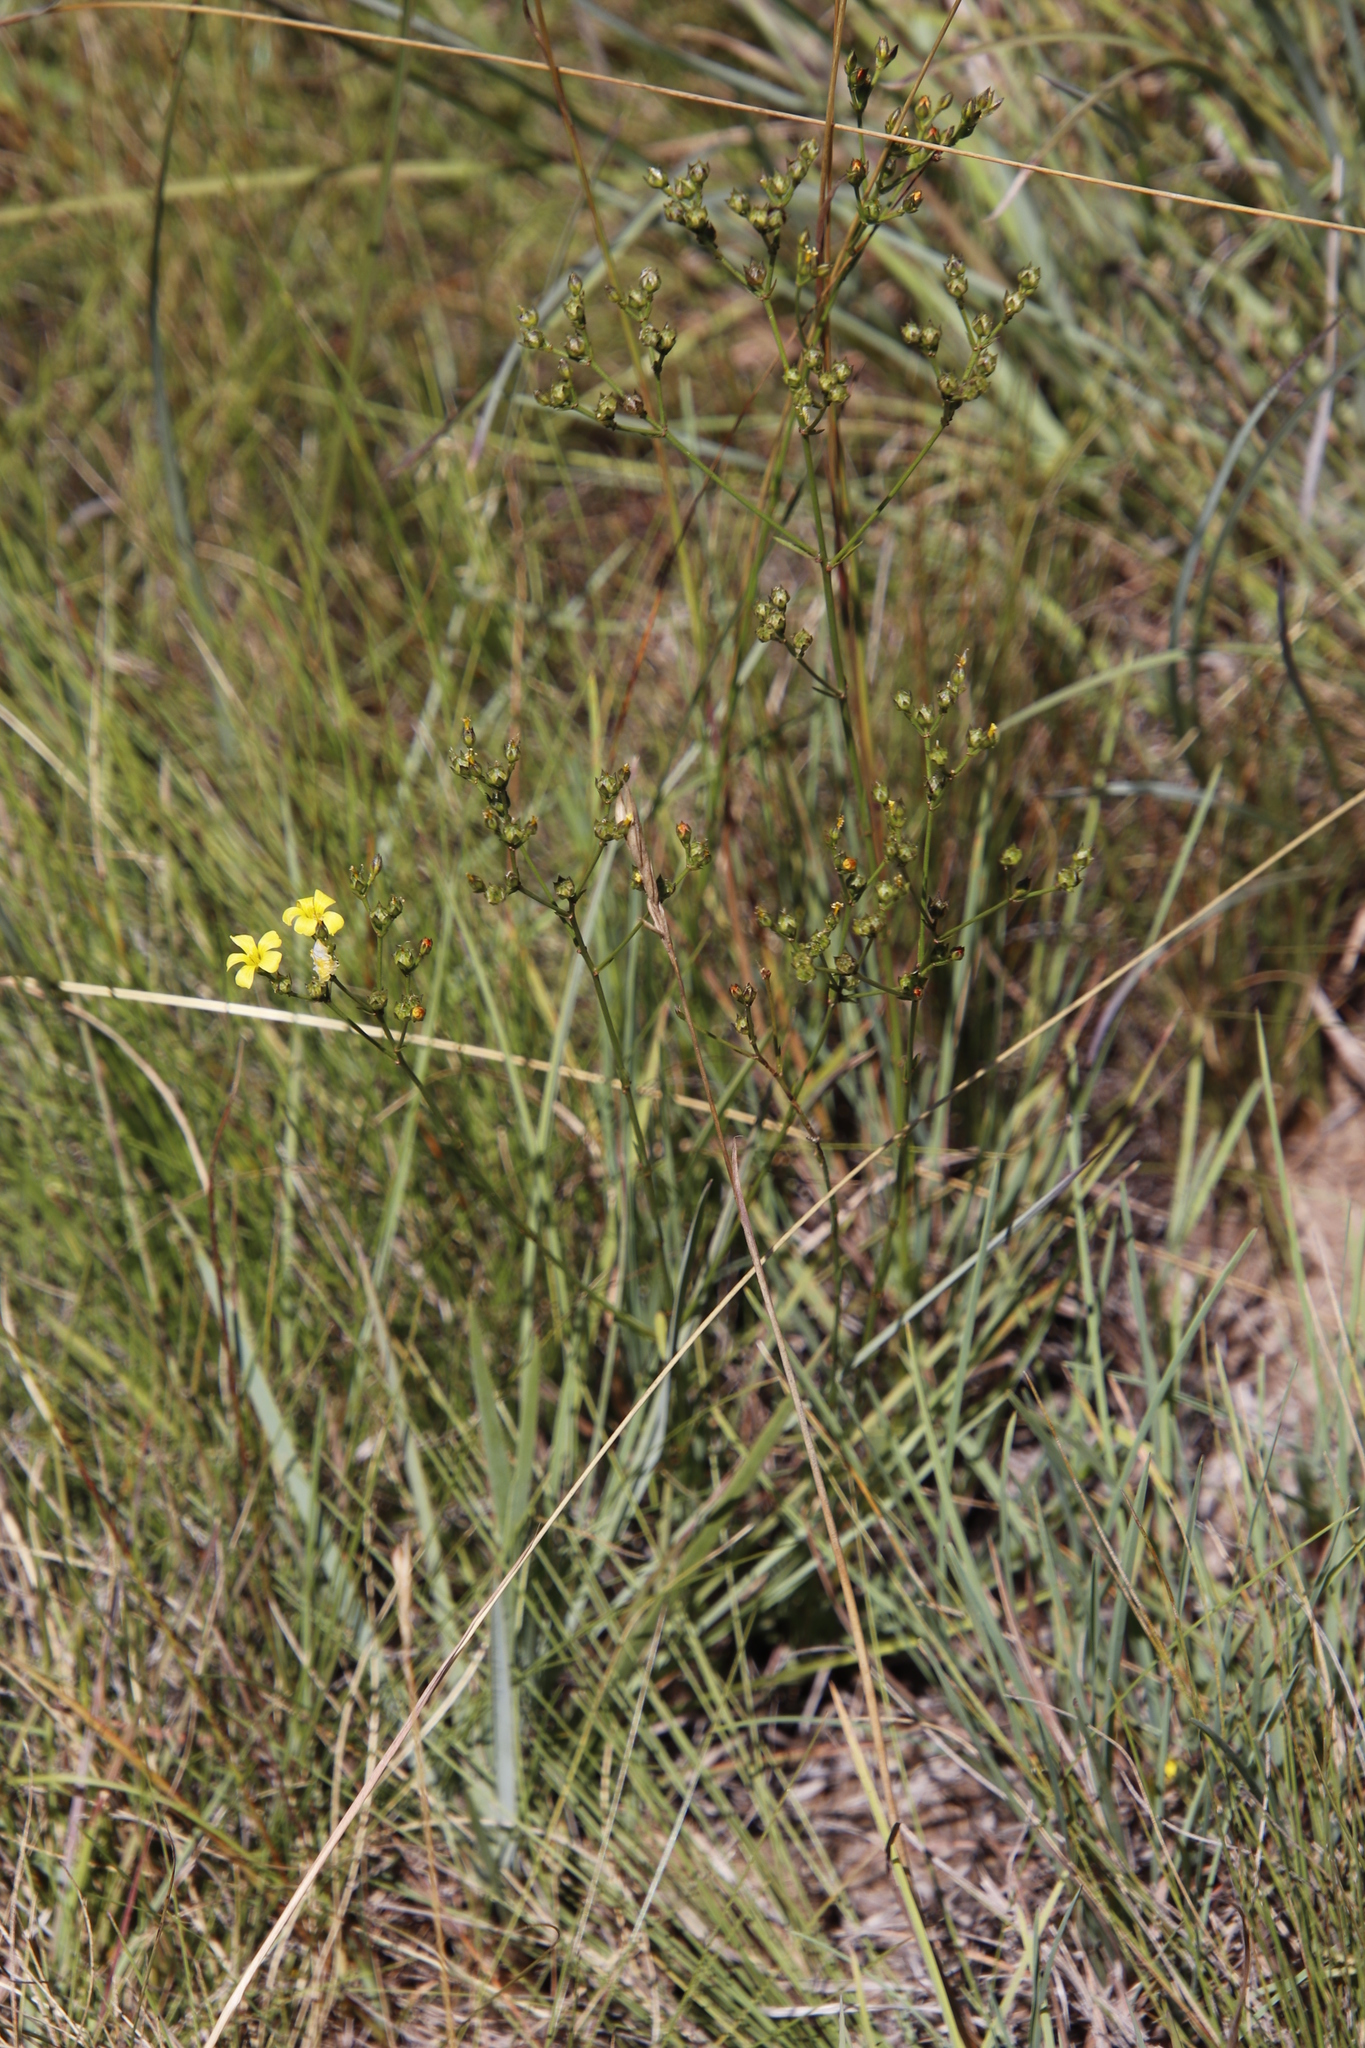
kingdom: Plantae
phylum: Tracheophyta
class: Magnoliopsida
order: Malpighiales
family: Linaceae
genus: Linum
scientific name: Linum thunbergii
